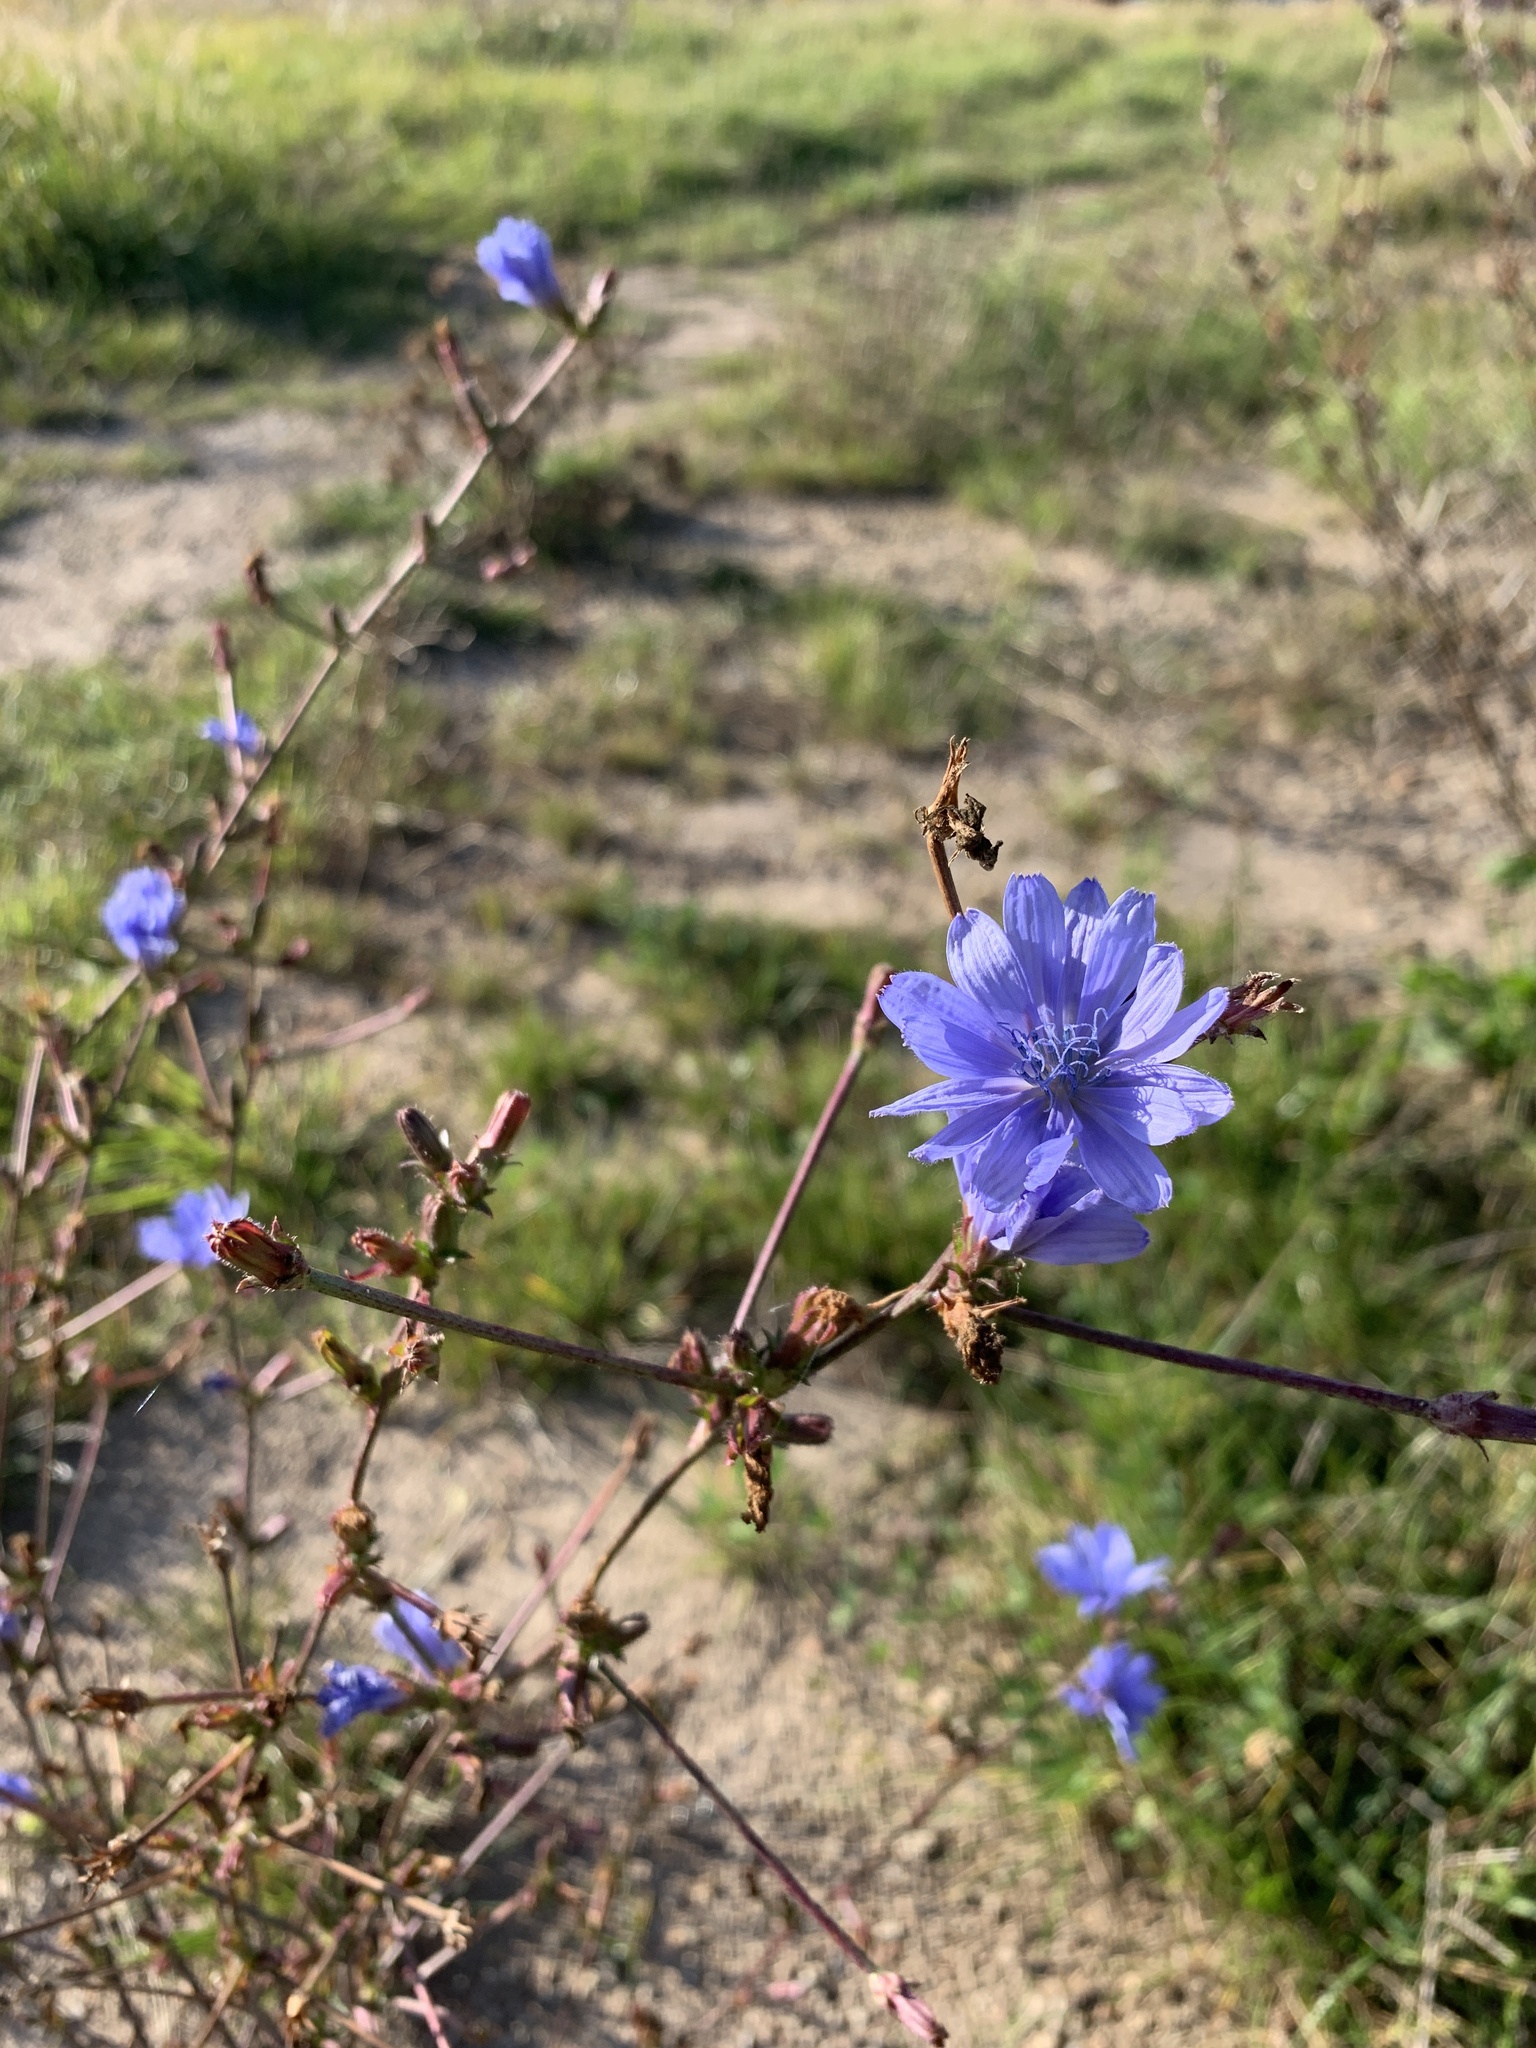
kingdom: Plantae
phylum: Tracheophyta
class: Magnoliopsida
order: Asterales
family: Asteraceae
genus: Cichorium
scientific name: Cichorium intybus
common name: Chicory
